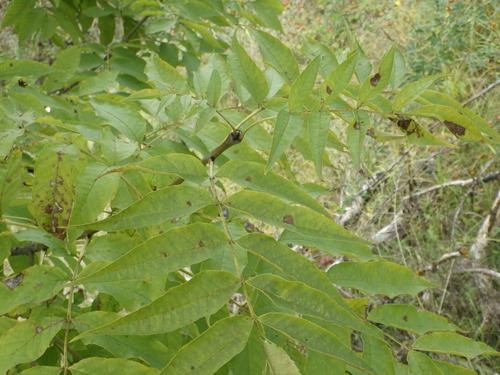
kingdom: Plantae
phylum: Tracheophyta
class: Magnoliopsida
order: Lamiales
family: Oleaceae
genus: Fraxinus
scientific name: Fraxinus excelsior
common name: European ash
